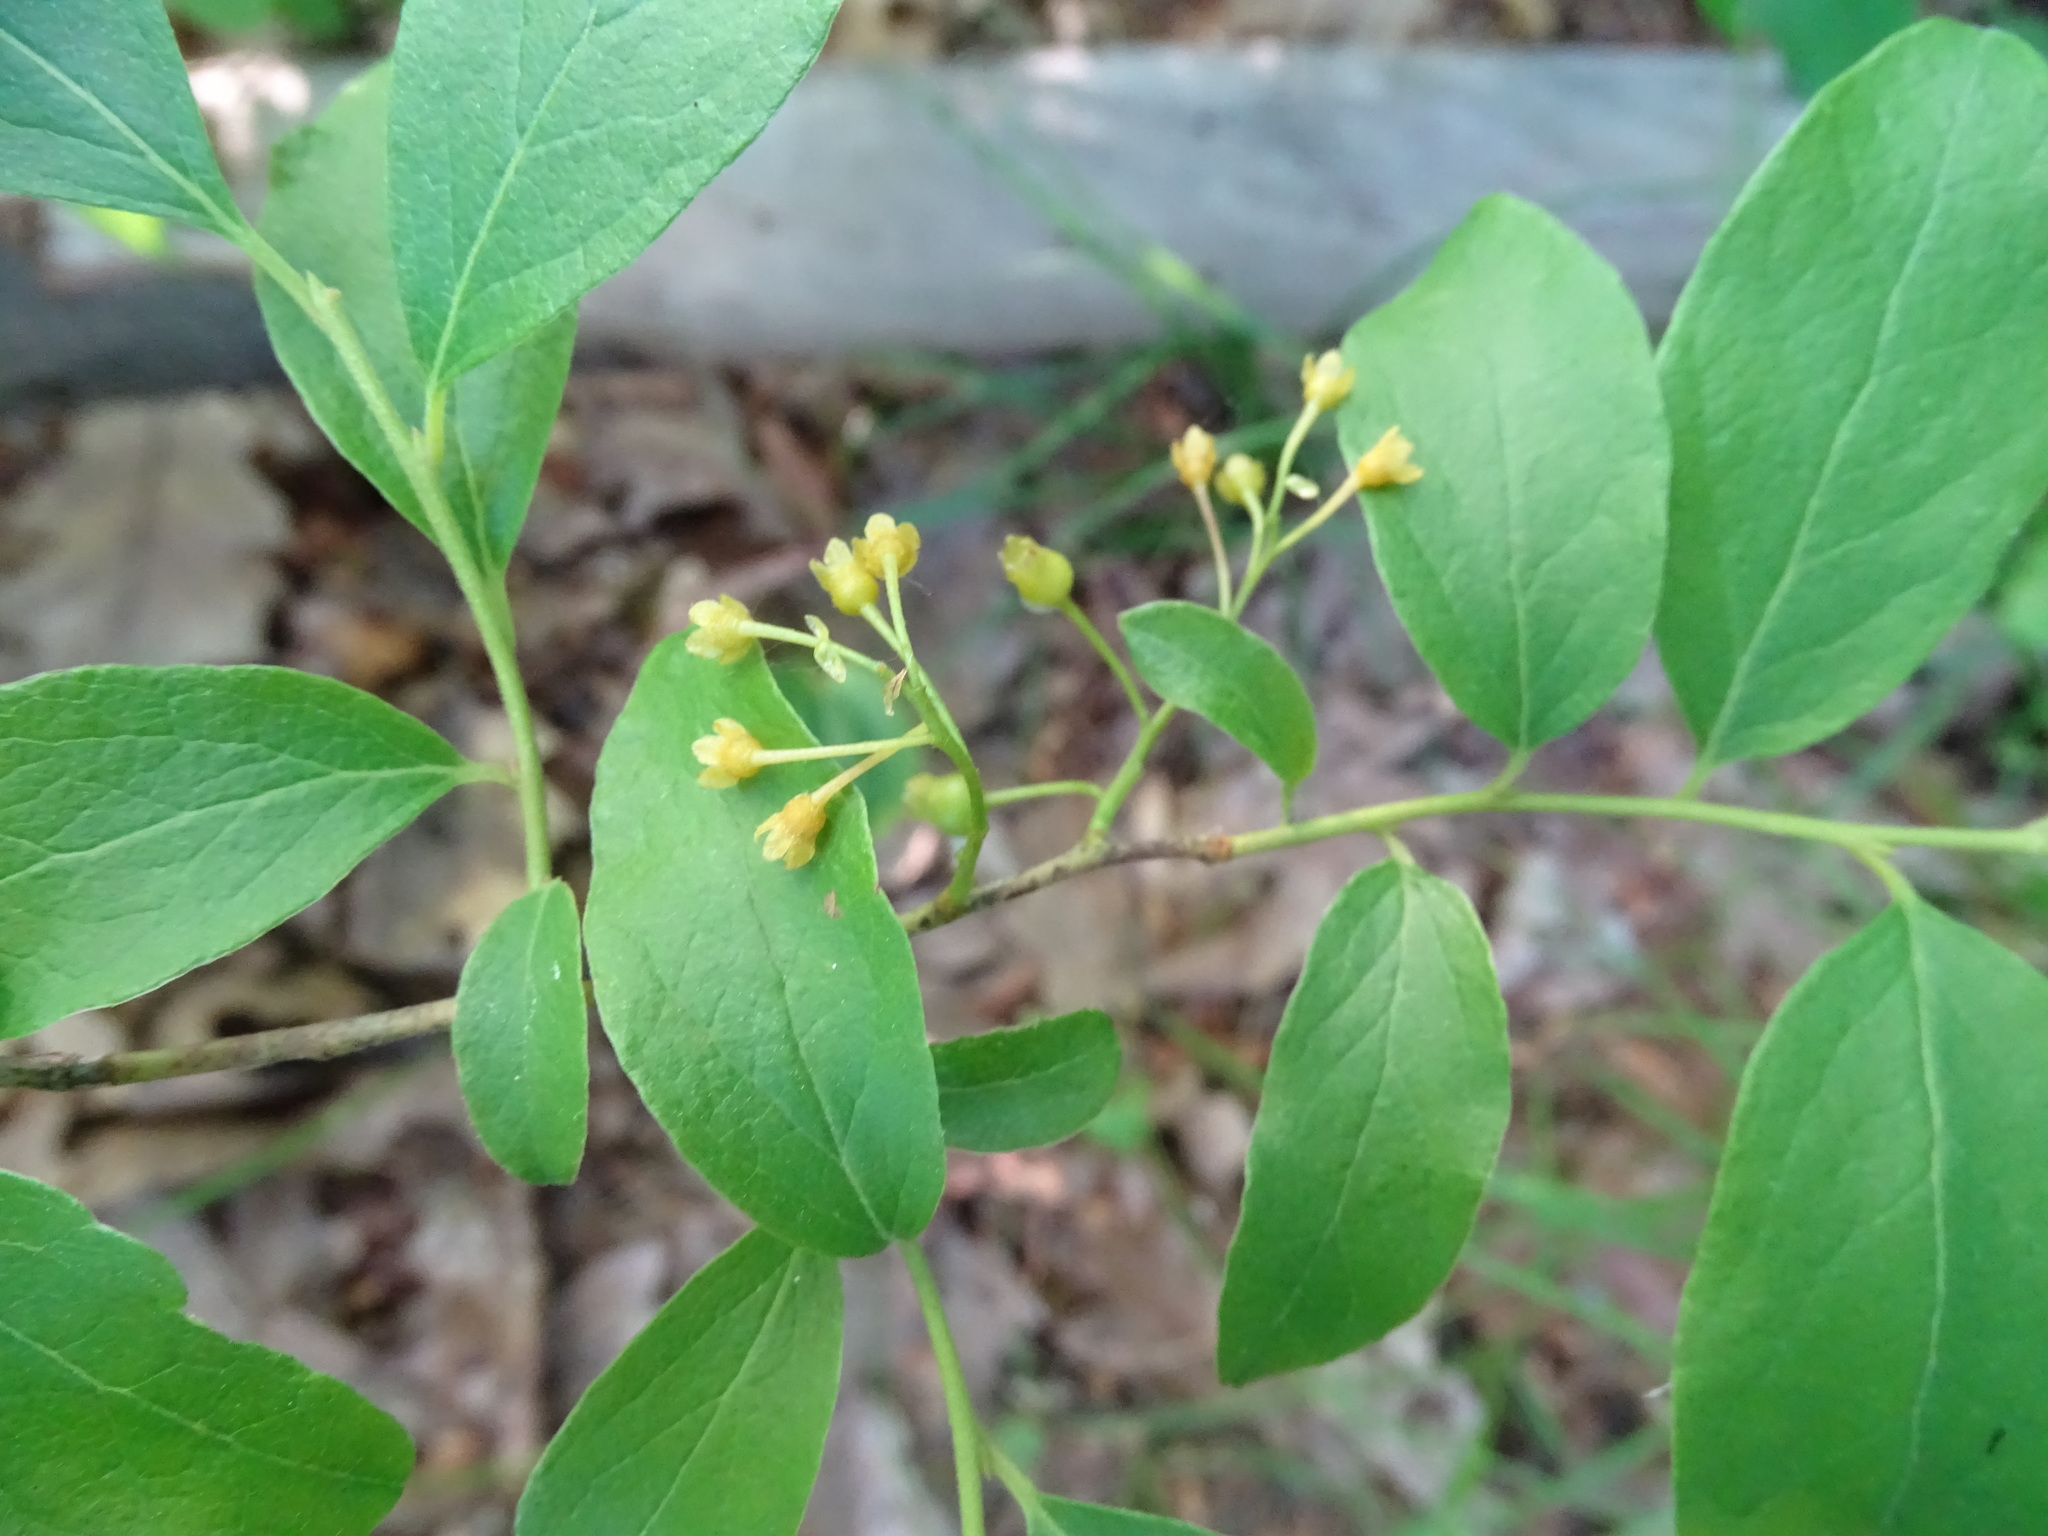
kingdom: Plantae
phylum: Tracheophyta
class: Magnoliopsida
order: Ericales
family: Ericaceae
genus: Gaylussacia
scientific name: Gaylussacia baccata
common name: Black huckleberry
